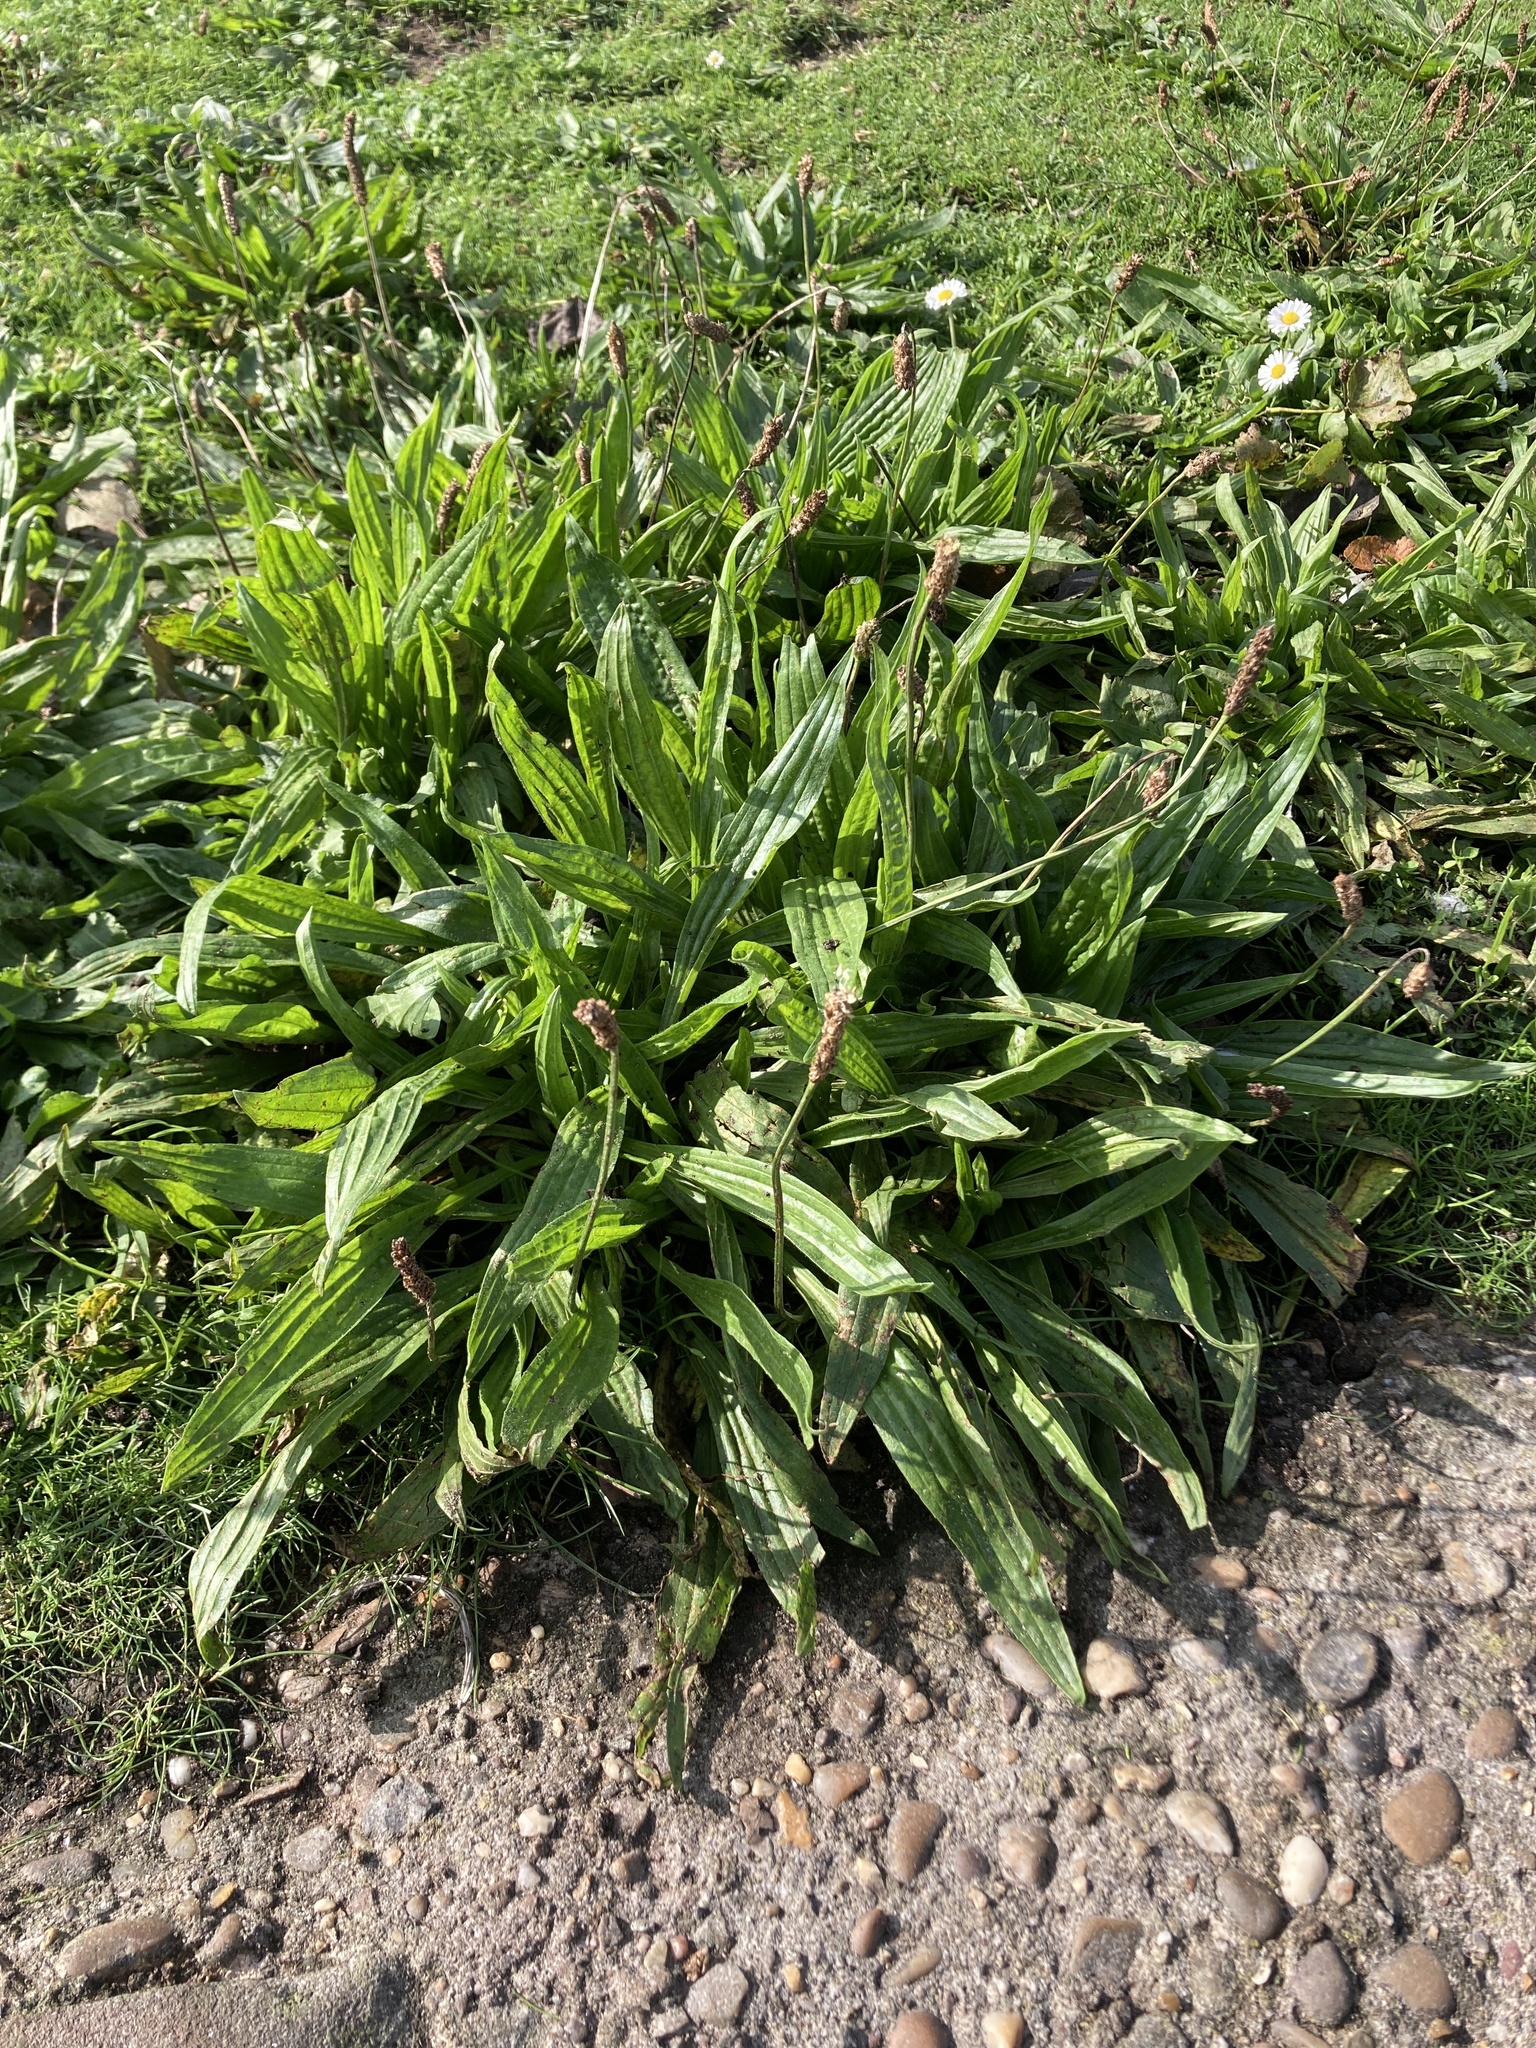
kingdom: Plantae
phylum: Tracheophyta
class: Magnoliopsida
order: Lamiales
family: Plantaginaceae
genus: Plantago
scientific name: Plantago lanceolata
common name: Ribwort plantain
